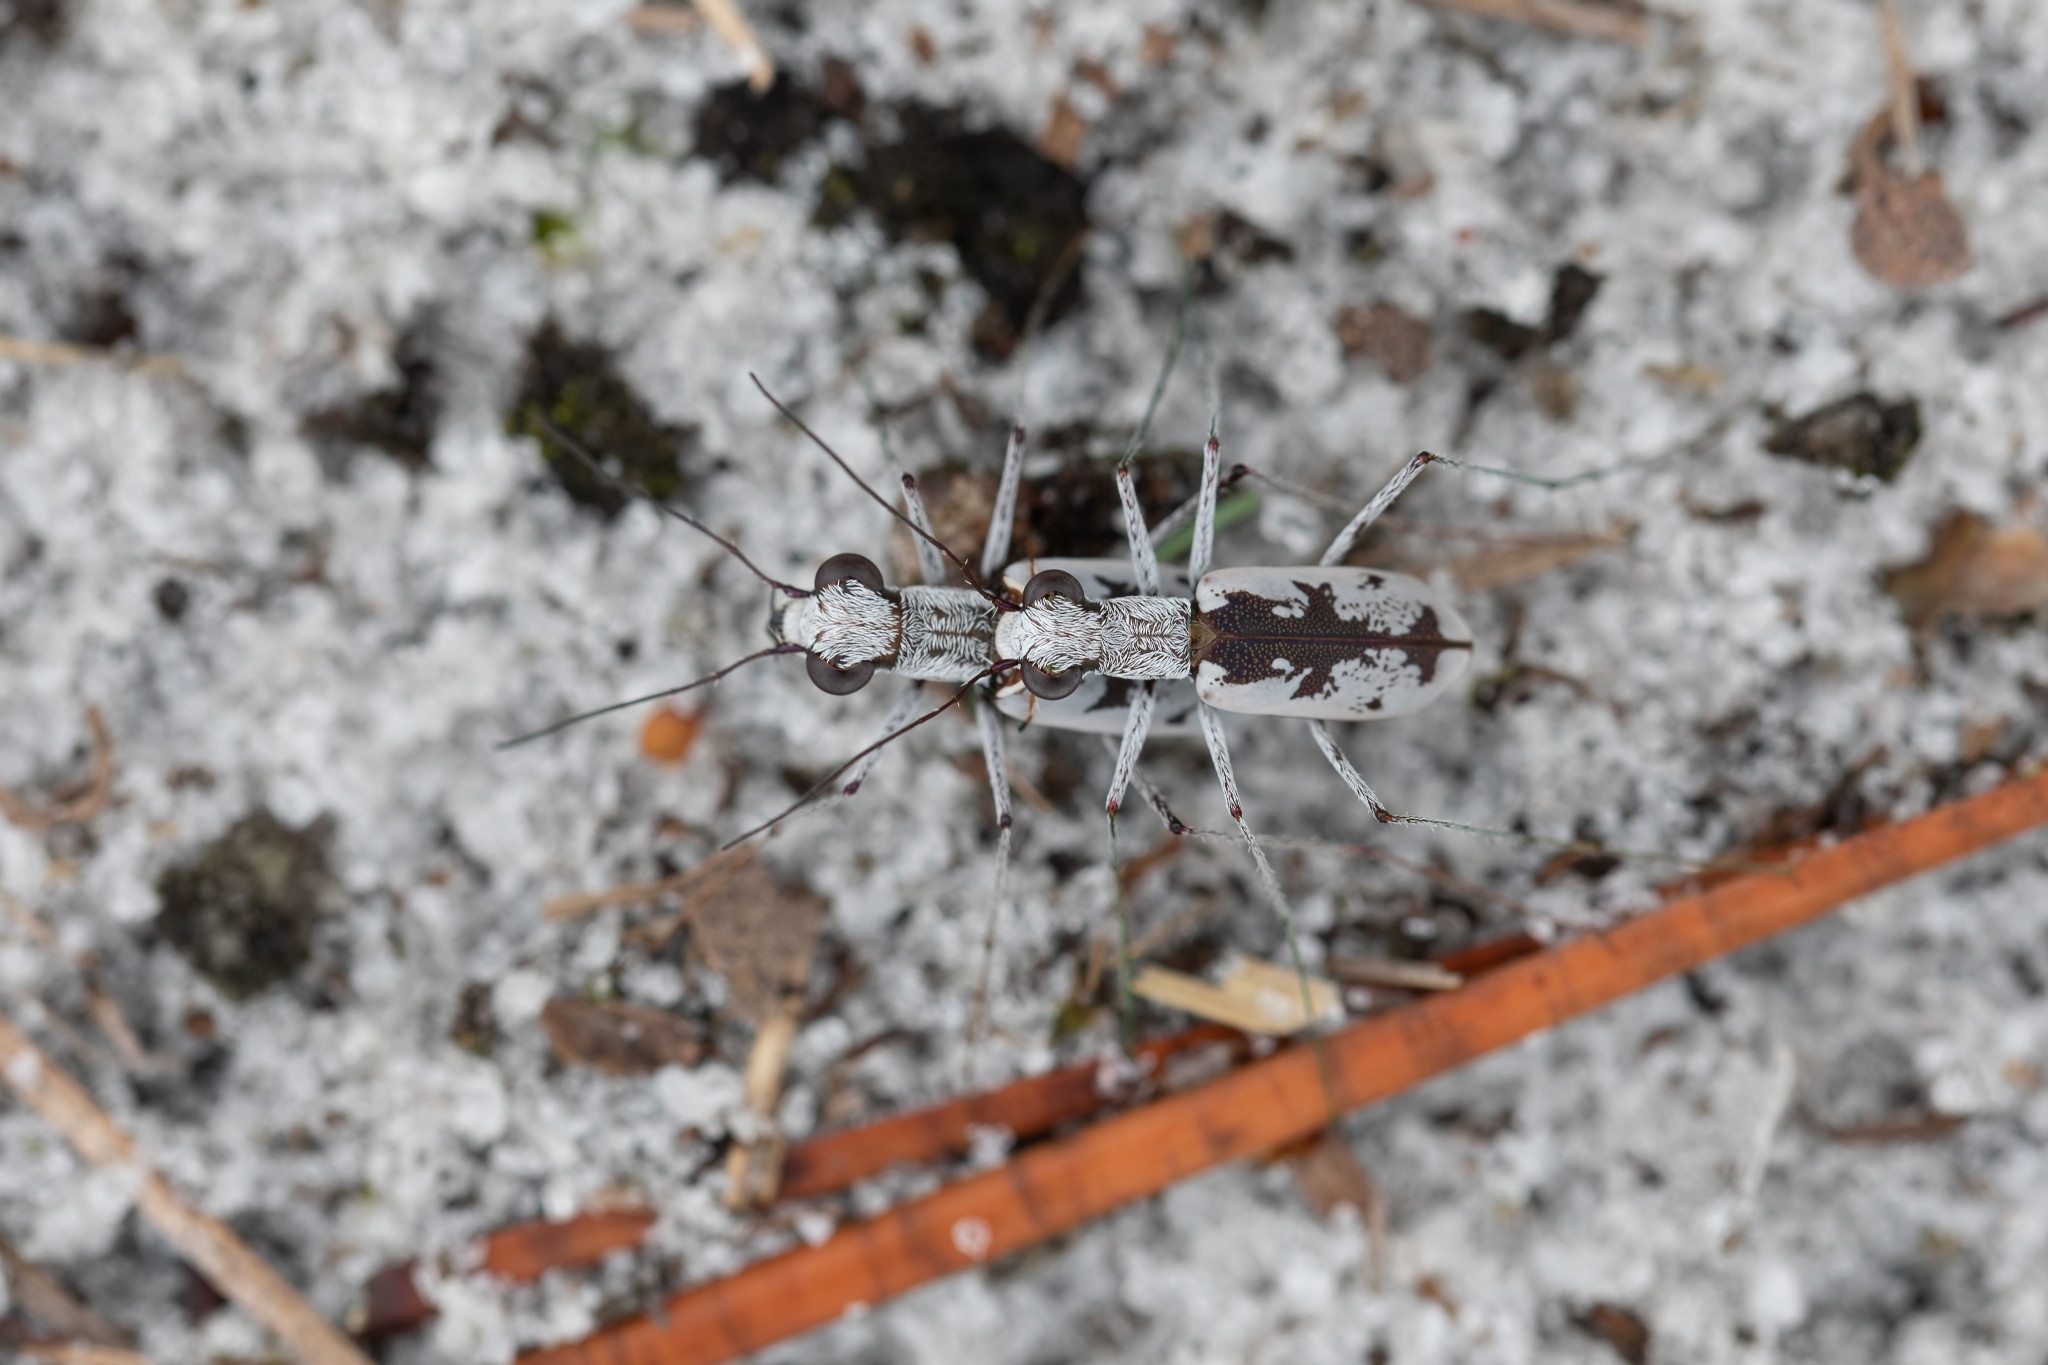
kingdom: Animalia
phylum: Arthropoda
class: Insecta
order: Coleoptera
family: Carabidae
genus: Ellipsoptera
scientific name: Ellipsoptera hirtilabris
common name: Moustached tiger beetle
